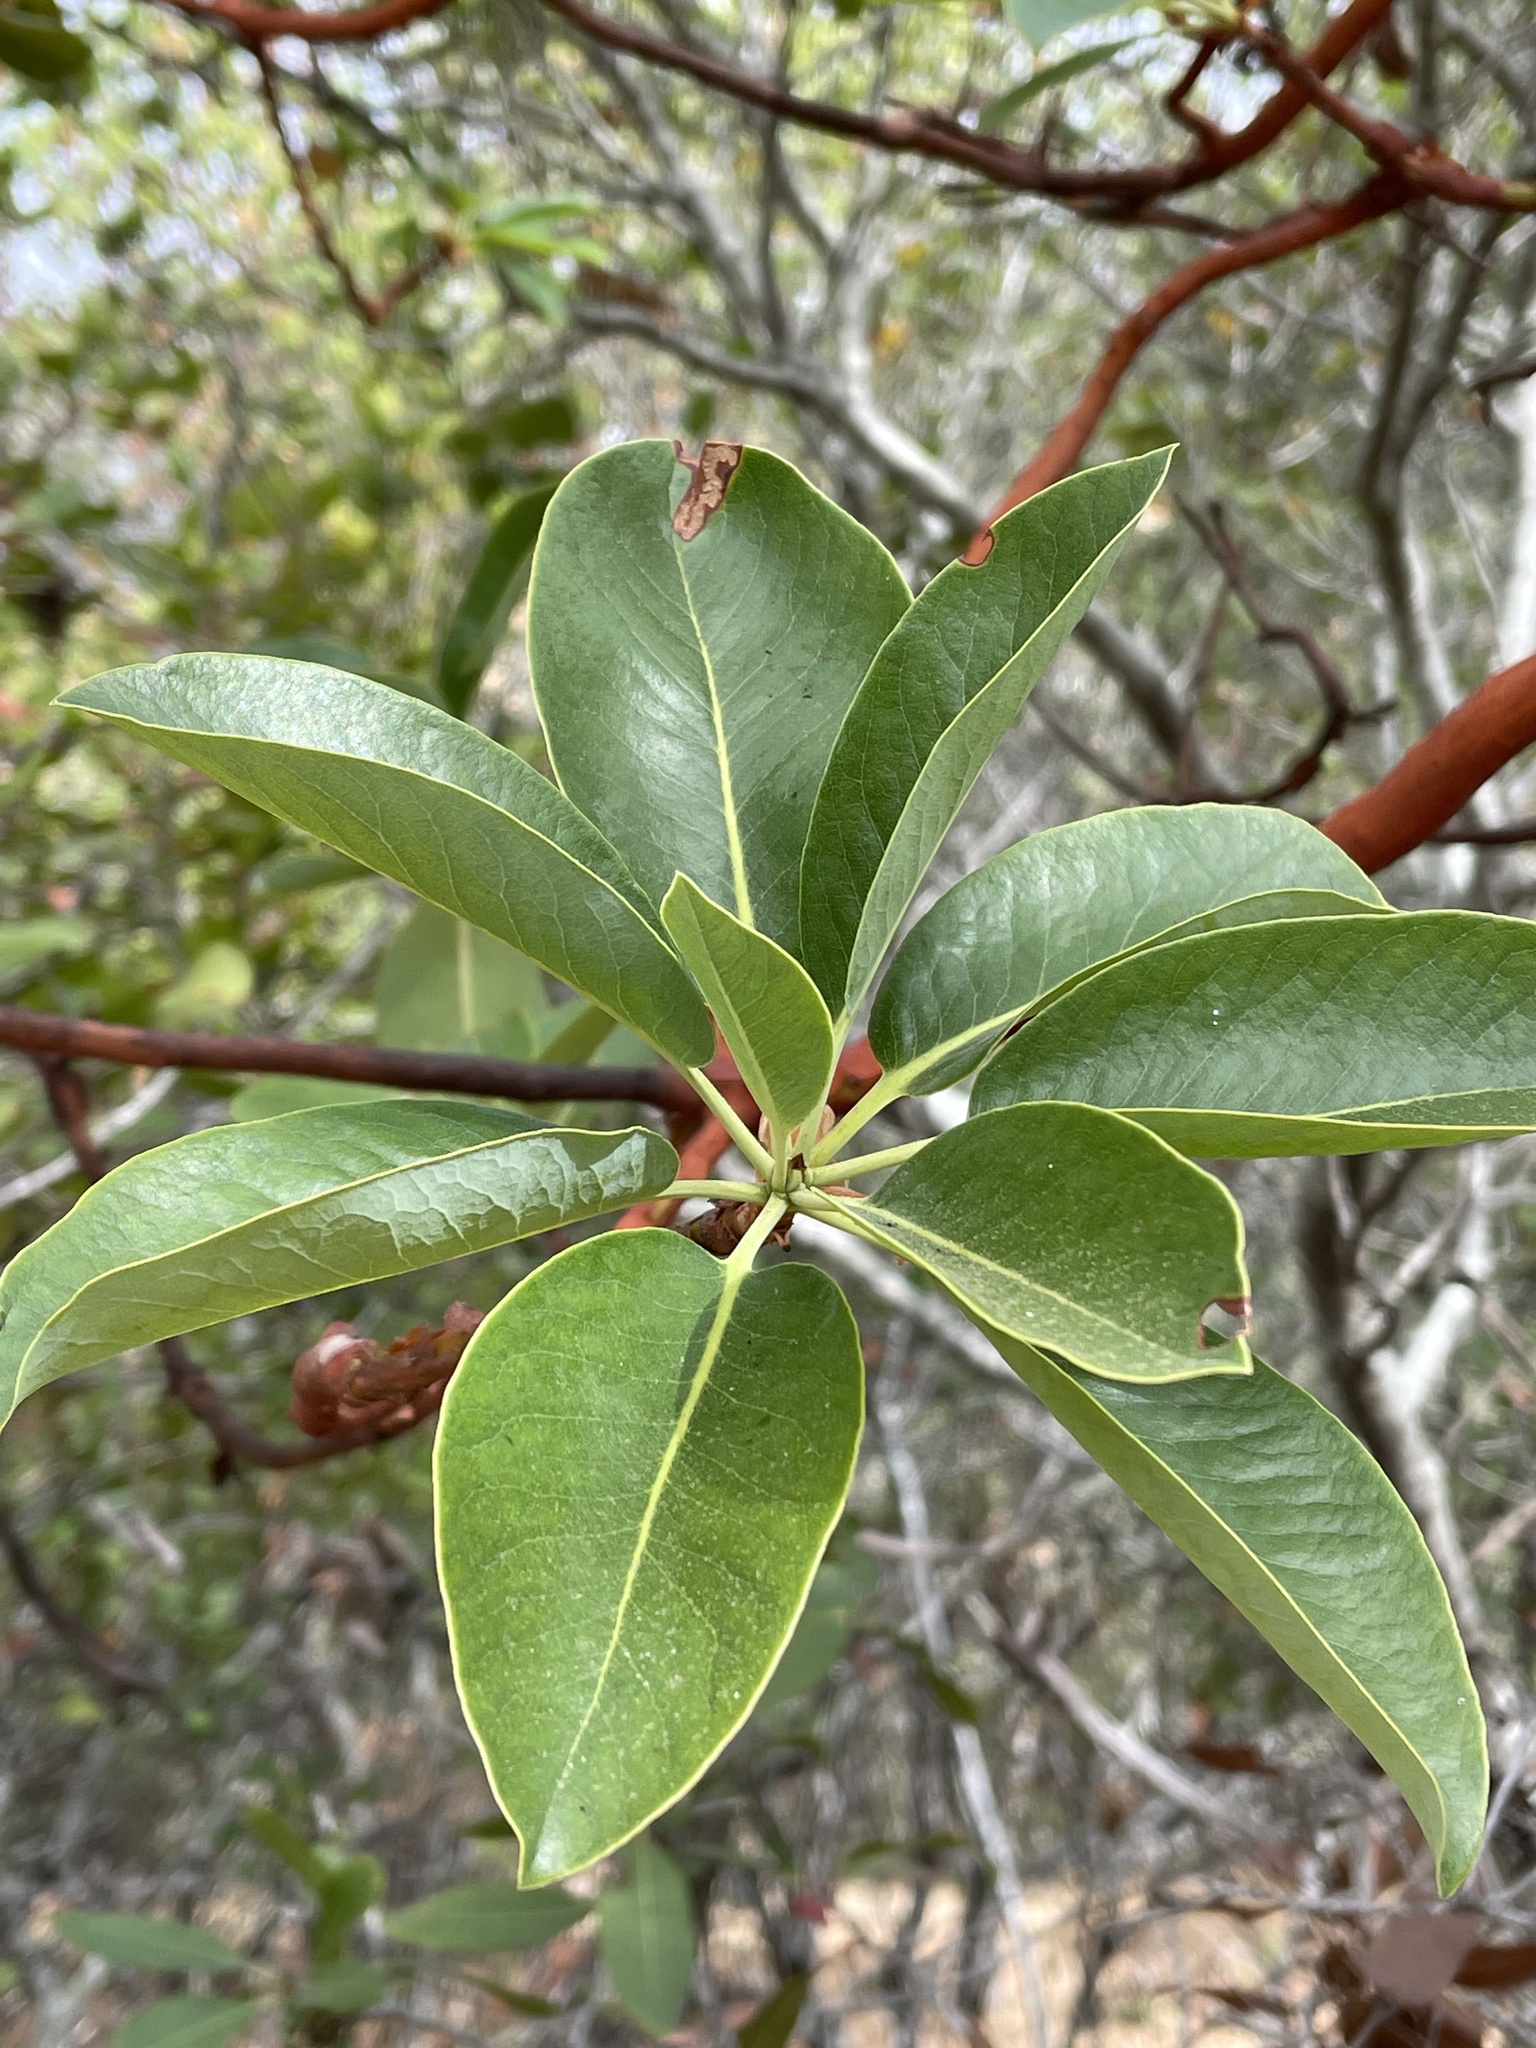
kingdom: Plantae
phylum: Tracheophyta
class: Magnoliopsida
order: Ericales
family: Ericaceae
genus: Arbutus
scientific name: Arbutus menziesii
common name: Pacific madrone
